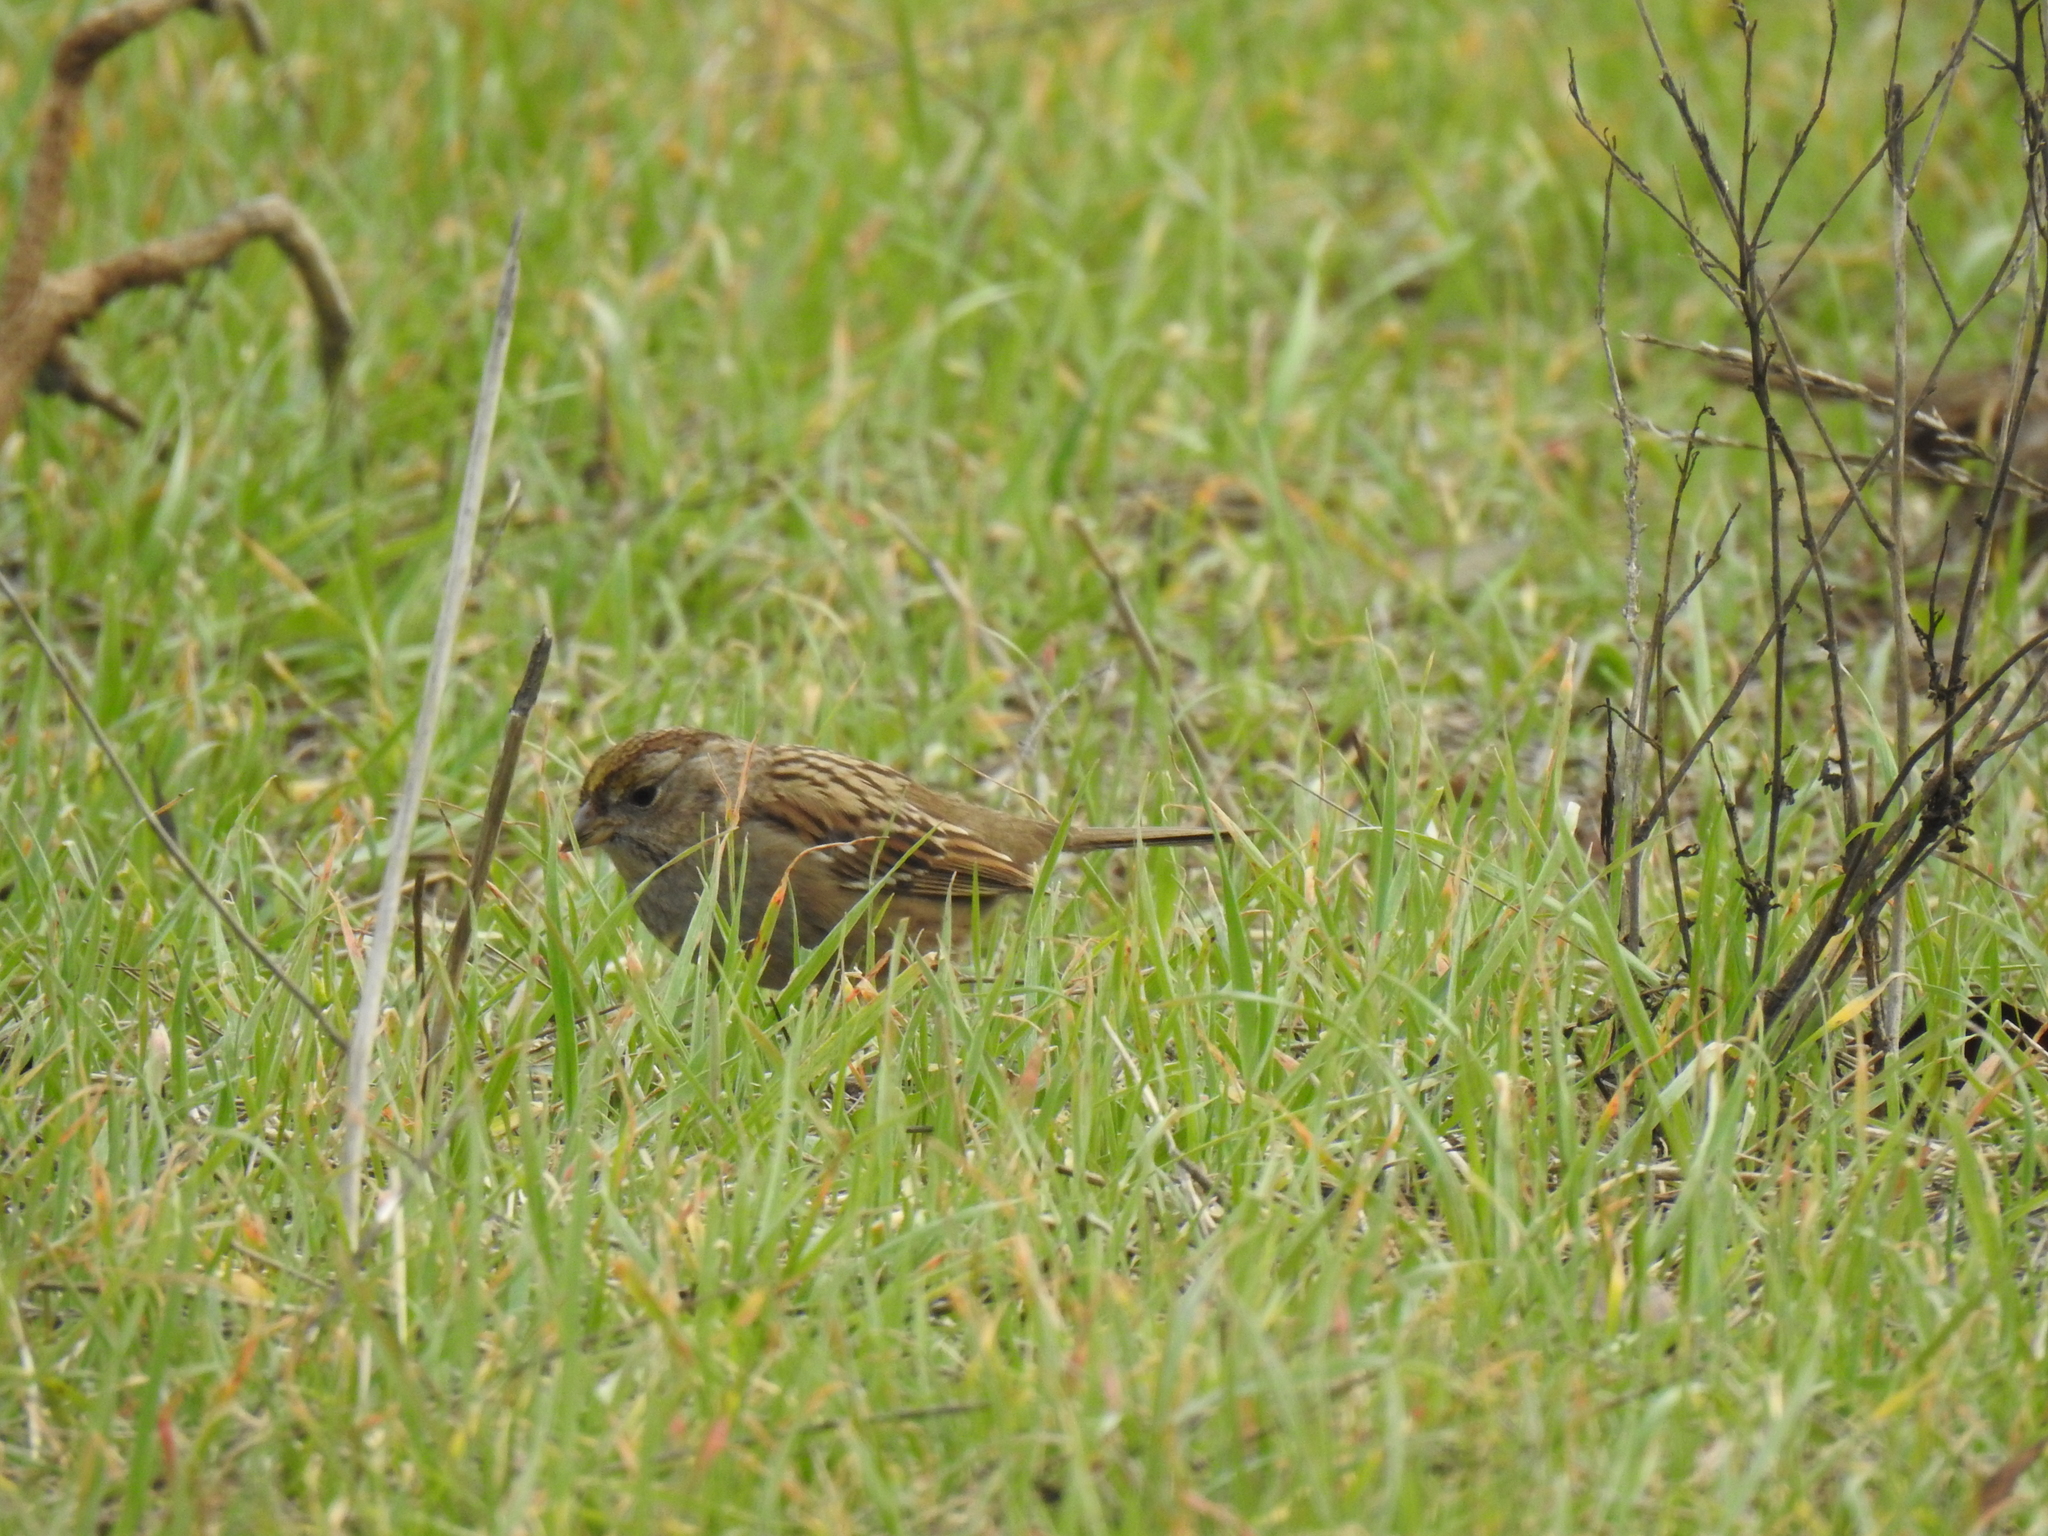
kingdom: Animalia
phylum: Chordata
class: Aves
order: Passeriformes
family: Passerellidae
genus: Zonotrichia
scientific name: Zonotrichia atricapilla
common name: Golden-crowned sparrow
